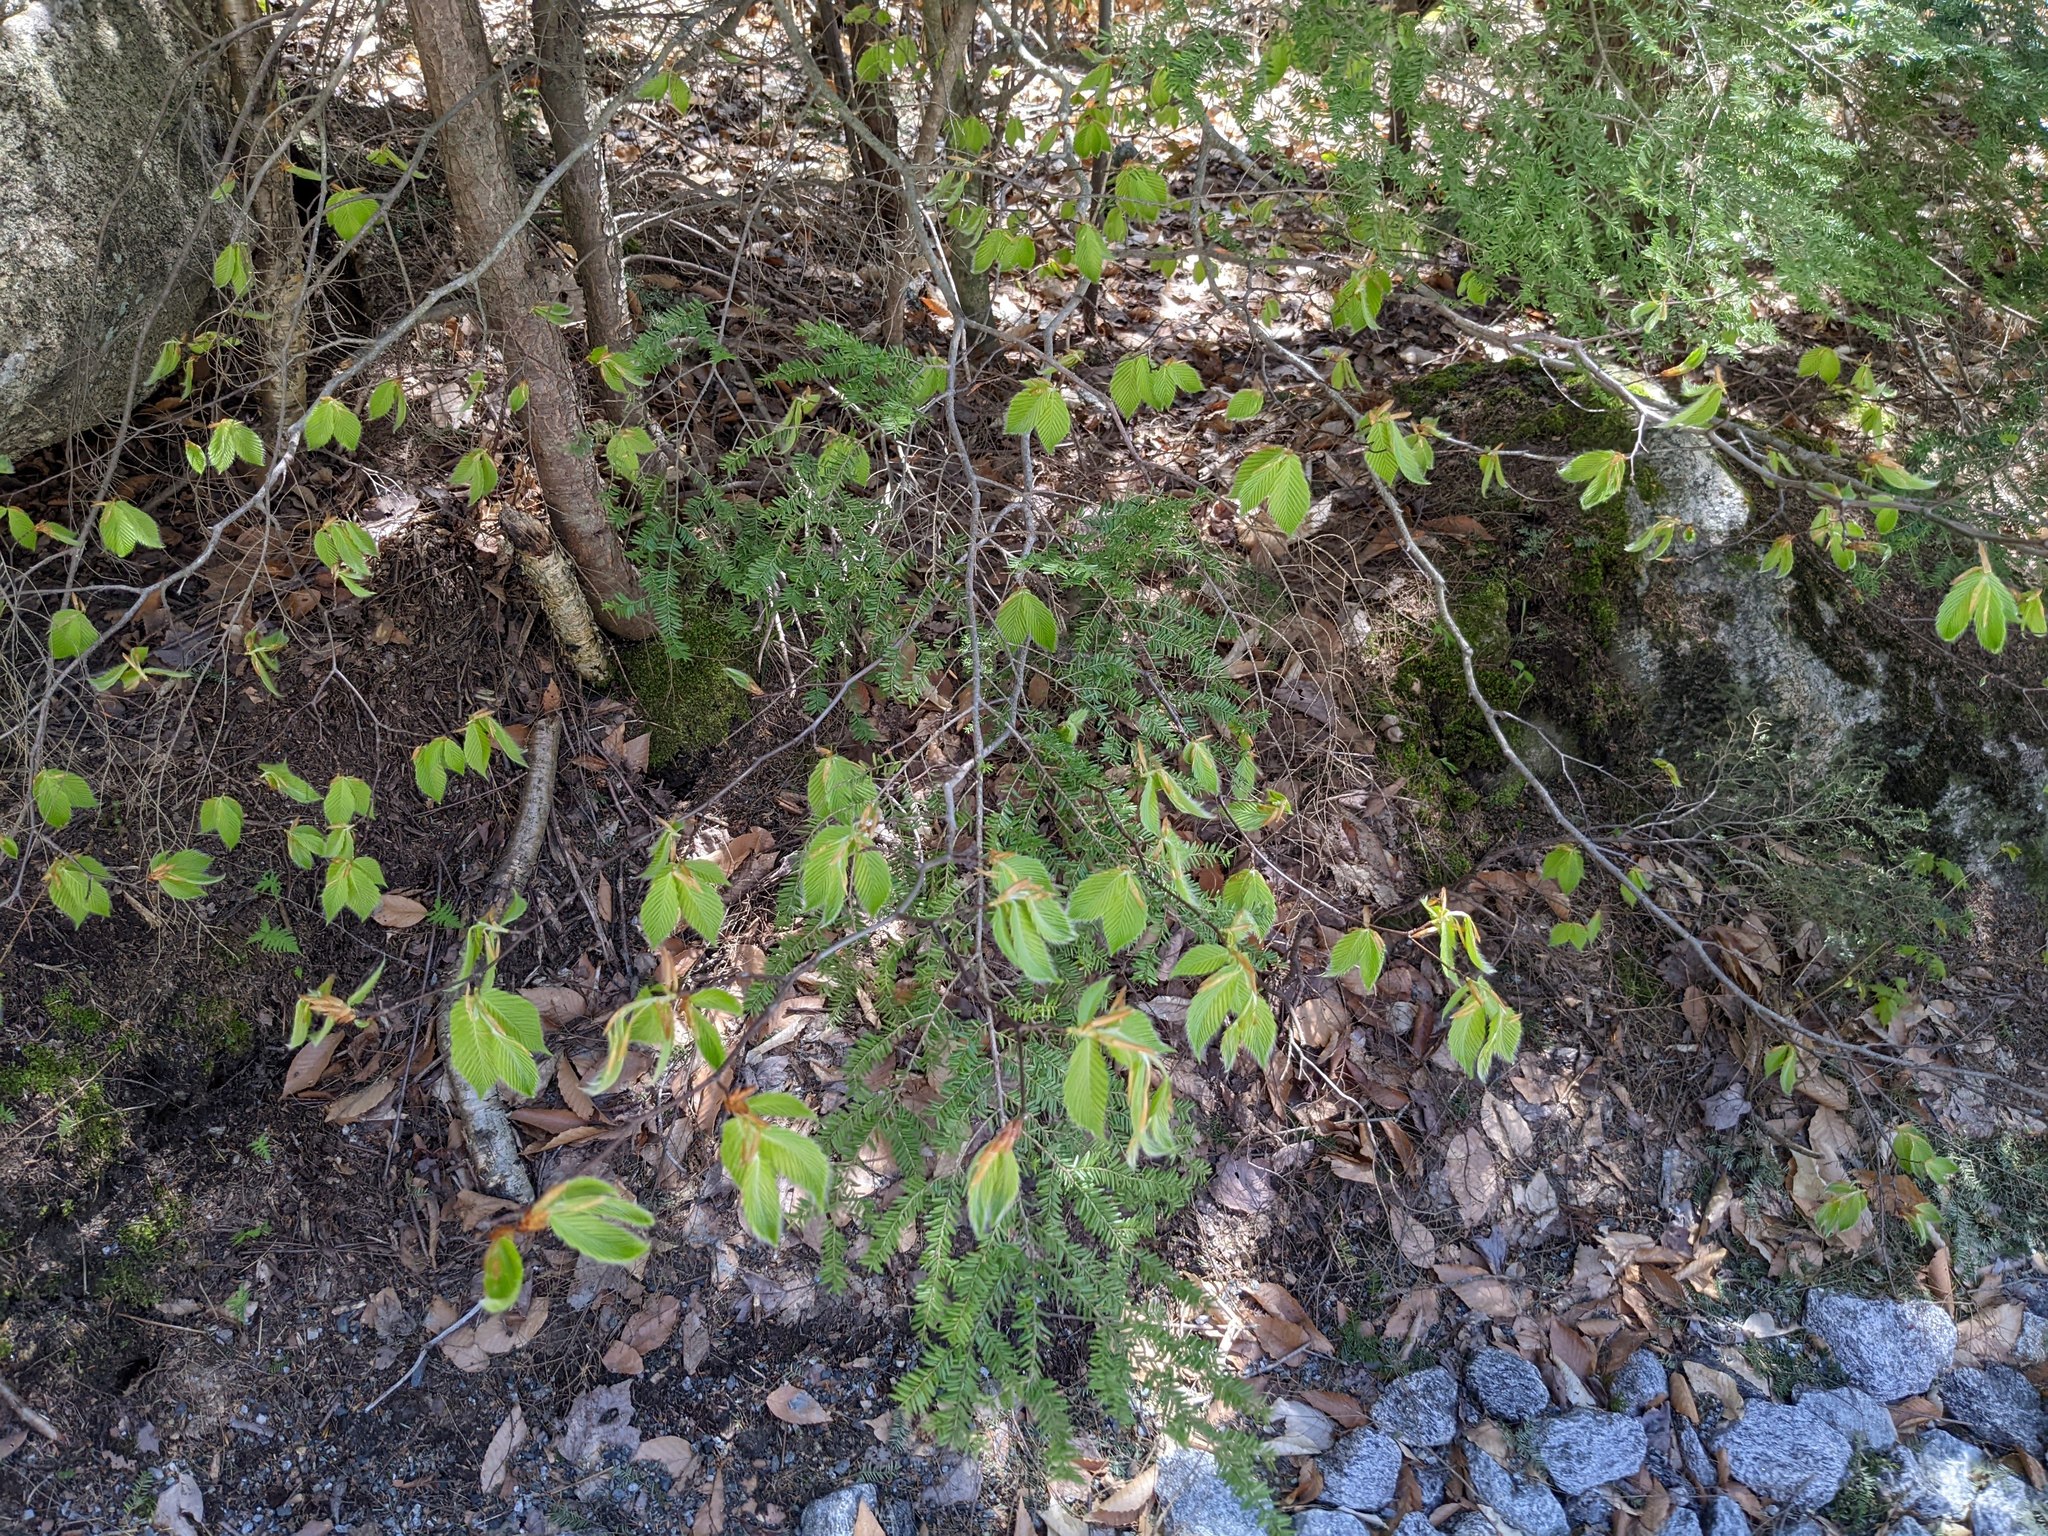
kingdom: Plantae
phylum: Tracheophyta
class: Magnoliopsida
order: Fagales
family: Fagaceae
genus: Fagus
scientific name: Fagus grandifolia
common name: American beech
